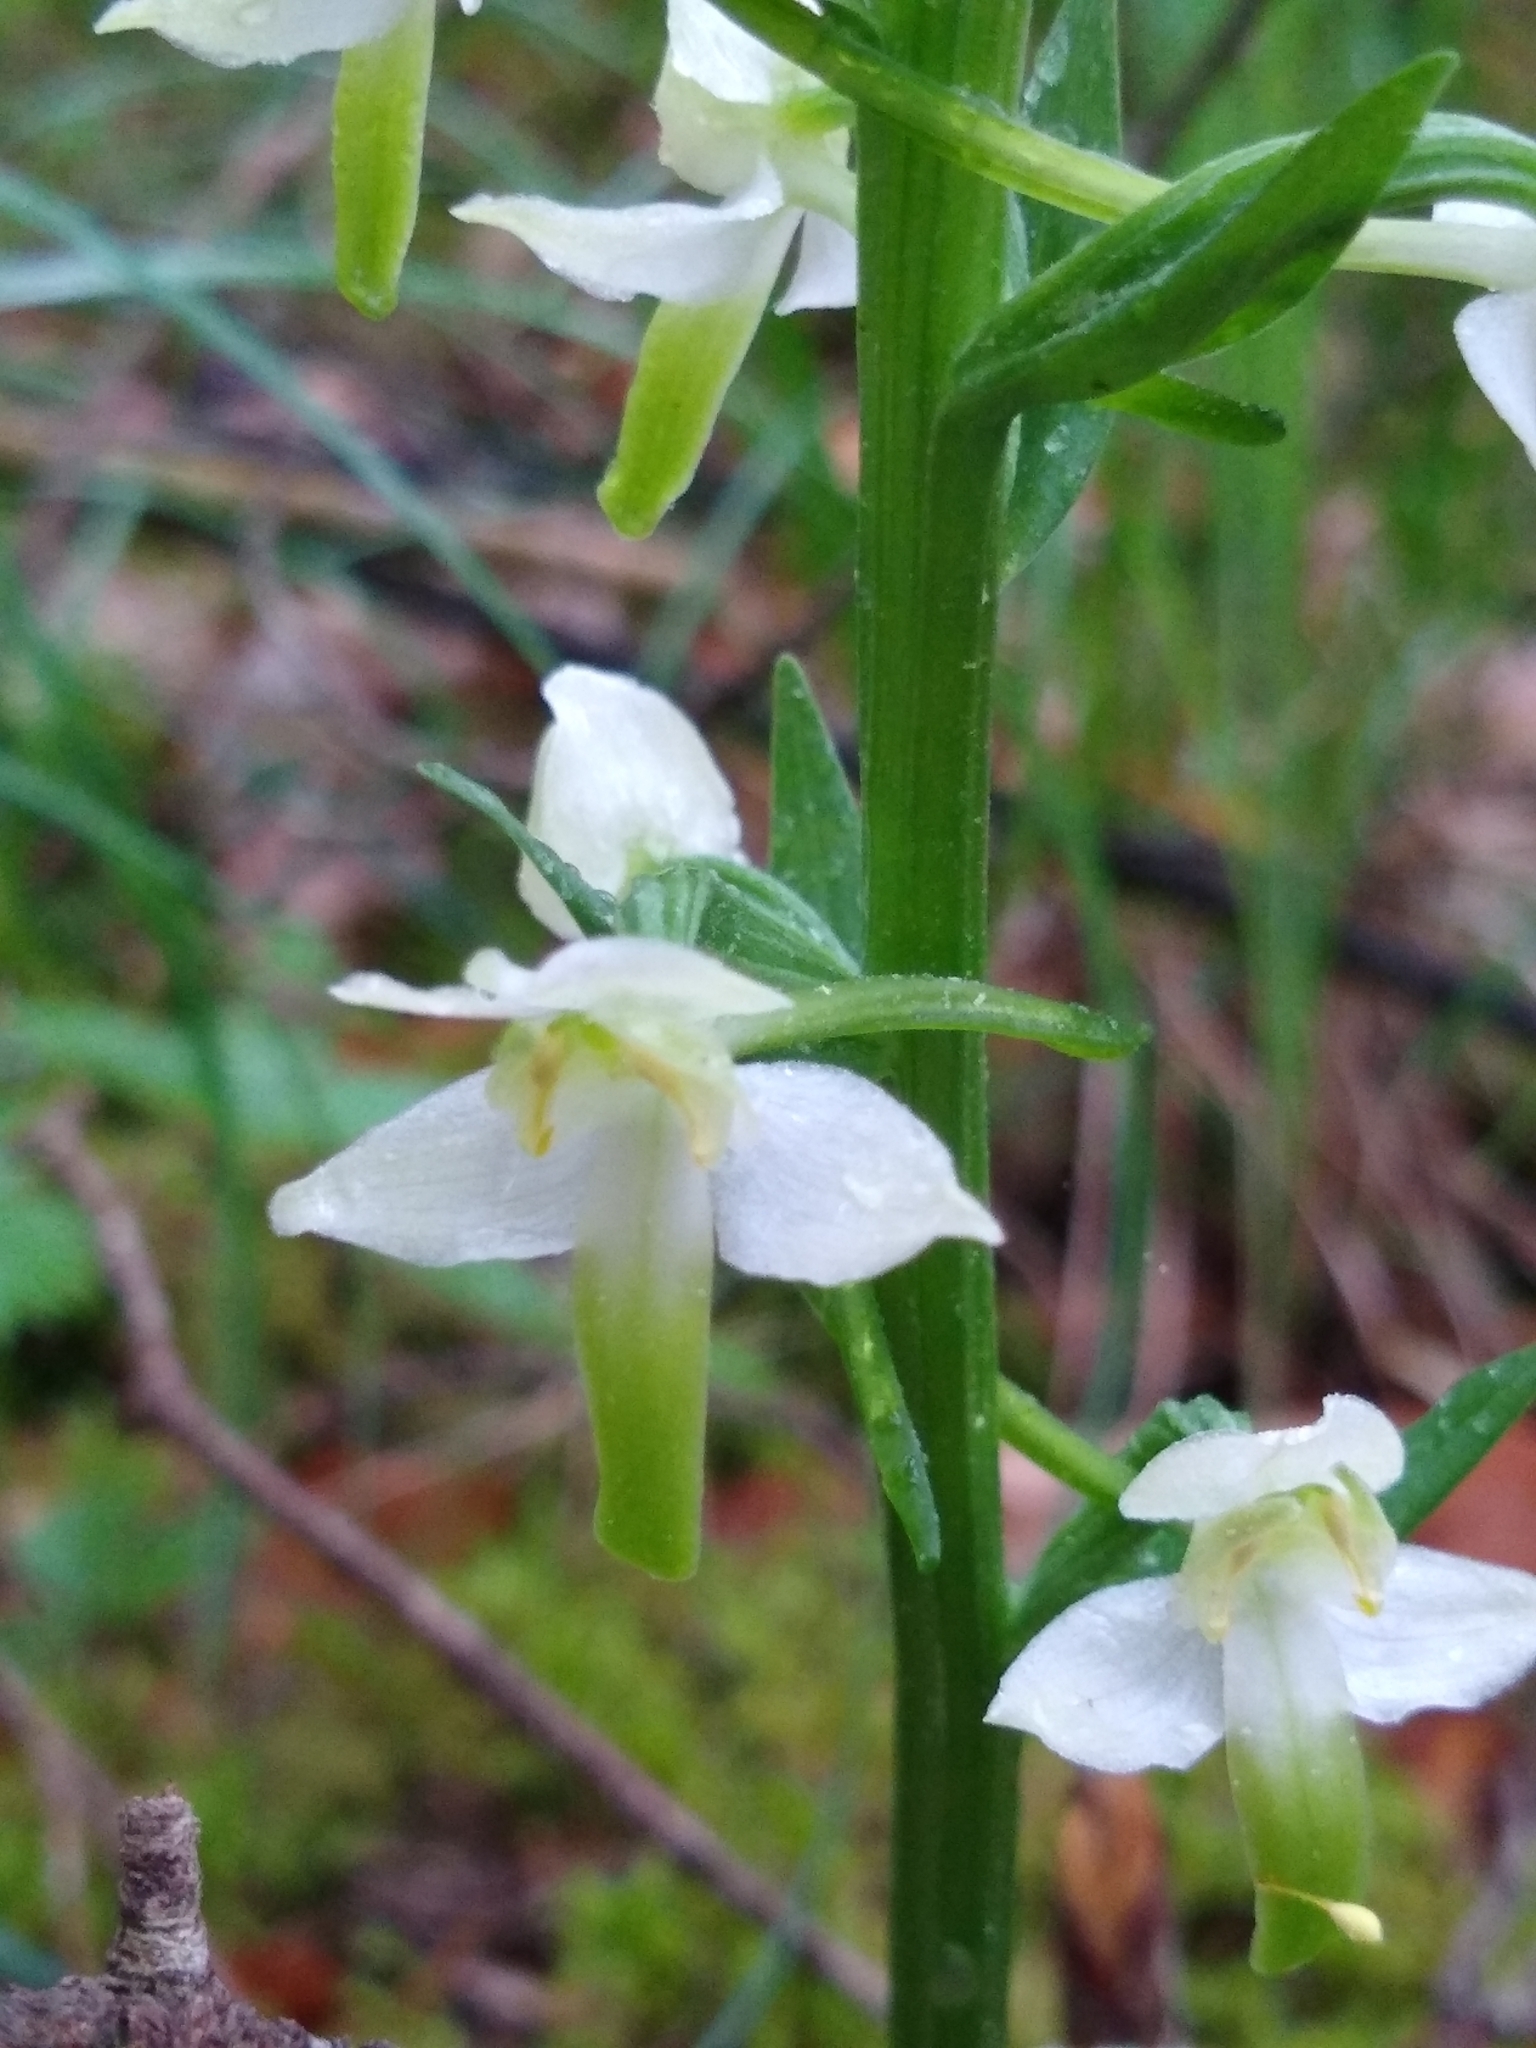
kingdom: Plantae
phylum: Tracheophyta
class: Liliopsida
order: Asparagales
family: Orchidaceae
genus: Platanthera
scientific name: Platanthera chlorantha
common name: Greater butterfly-orchid
